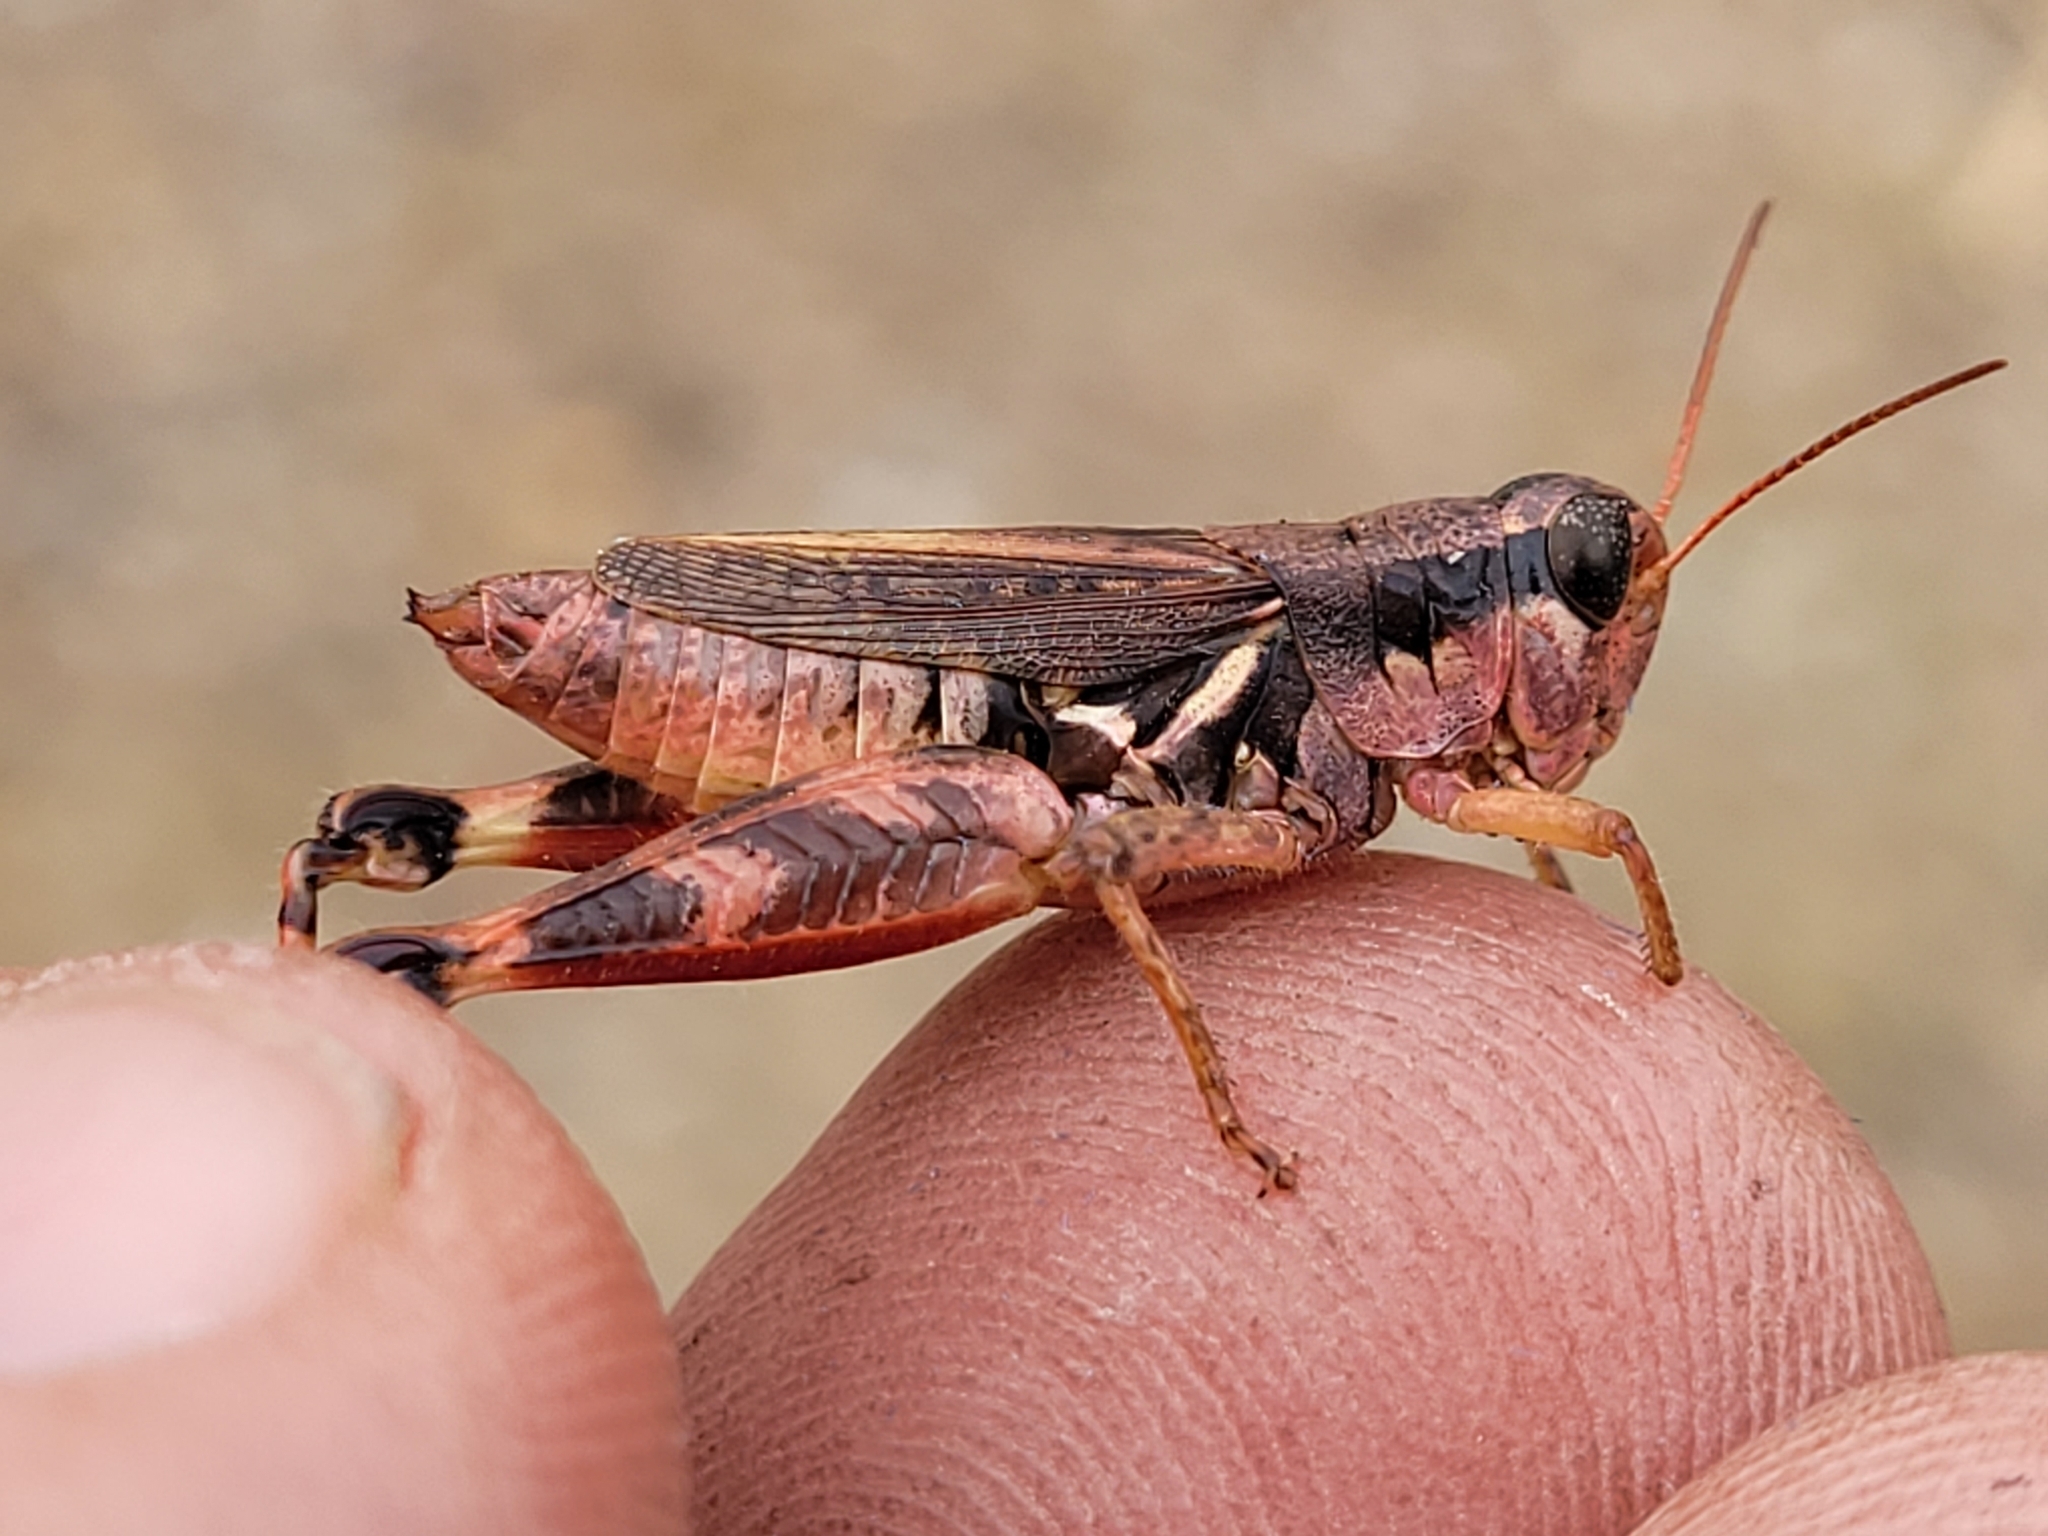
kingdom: Animalia
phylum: Arthropoda
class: Insecta
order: Orthoptera
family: Acrididae
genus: Melanoplus
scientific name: Melanoplus fasciatus
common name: Huckleberry locust
